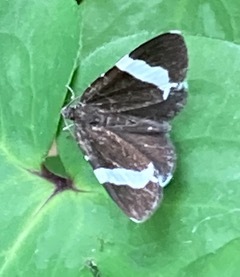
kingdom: Animalia
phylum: Arthropoda
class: Insecta
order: Lepidoptera
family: Geometridae
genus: Trichodezia
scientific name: Trichodezia albovittata
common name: White striped black
